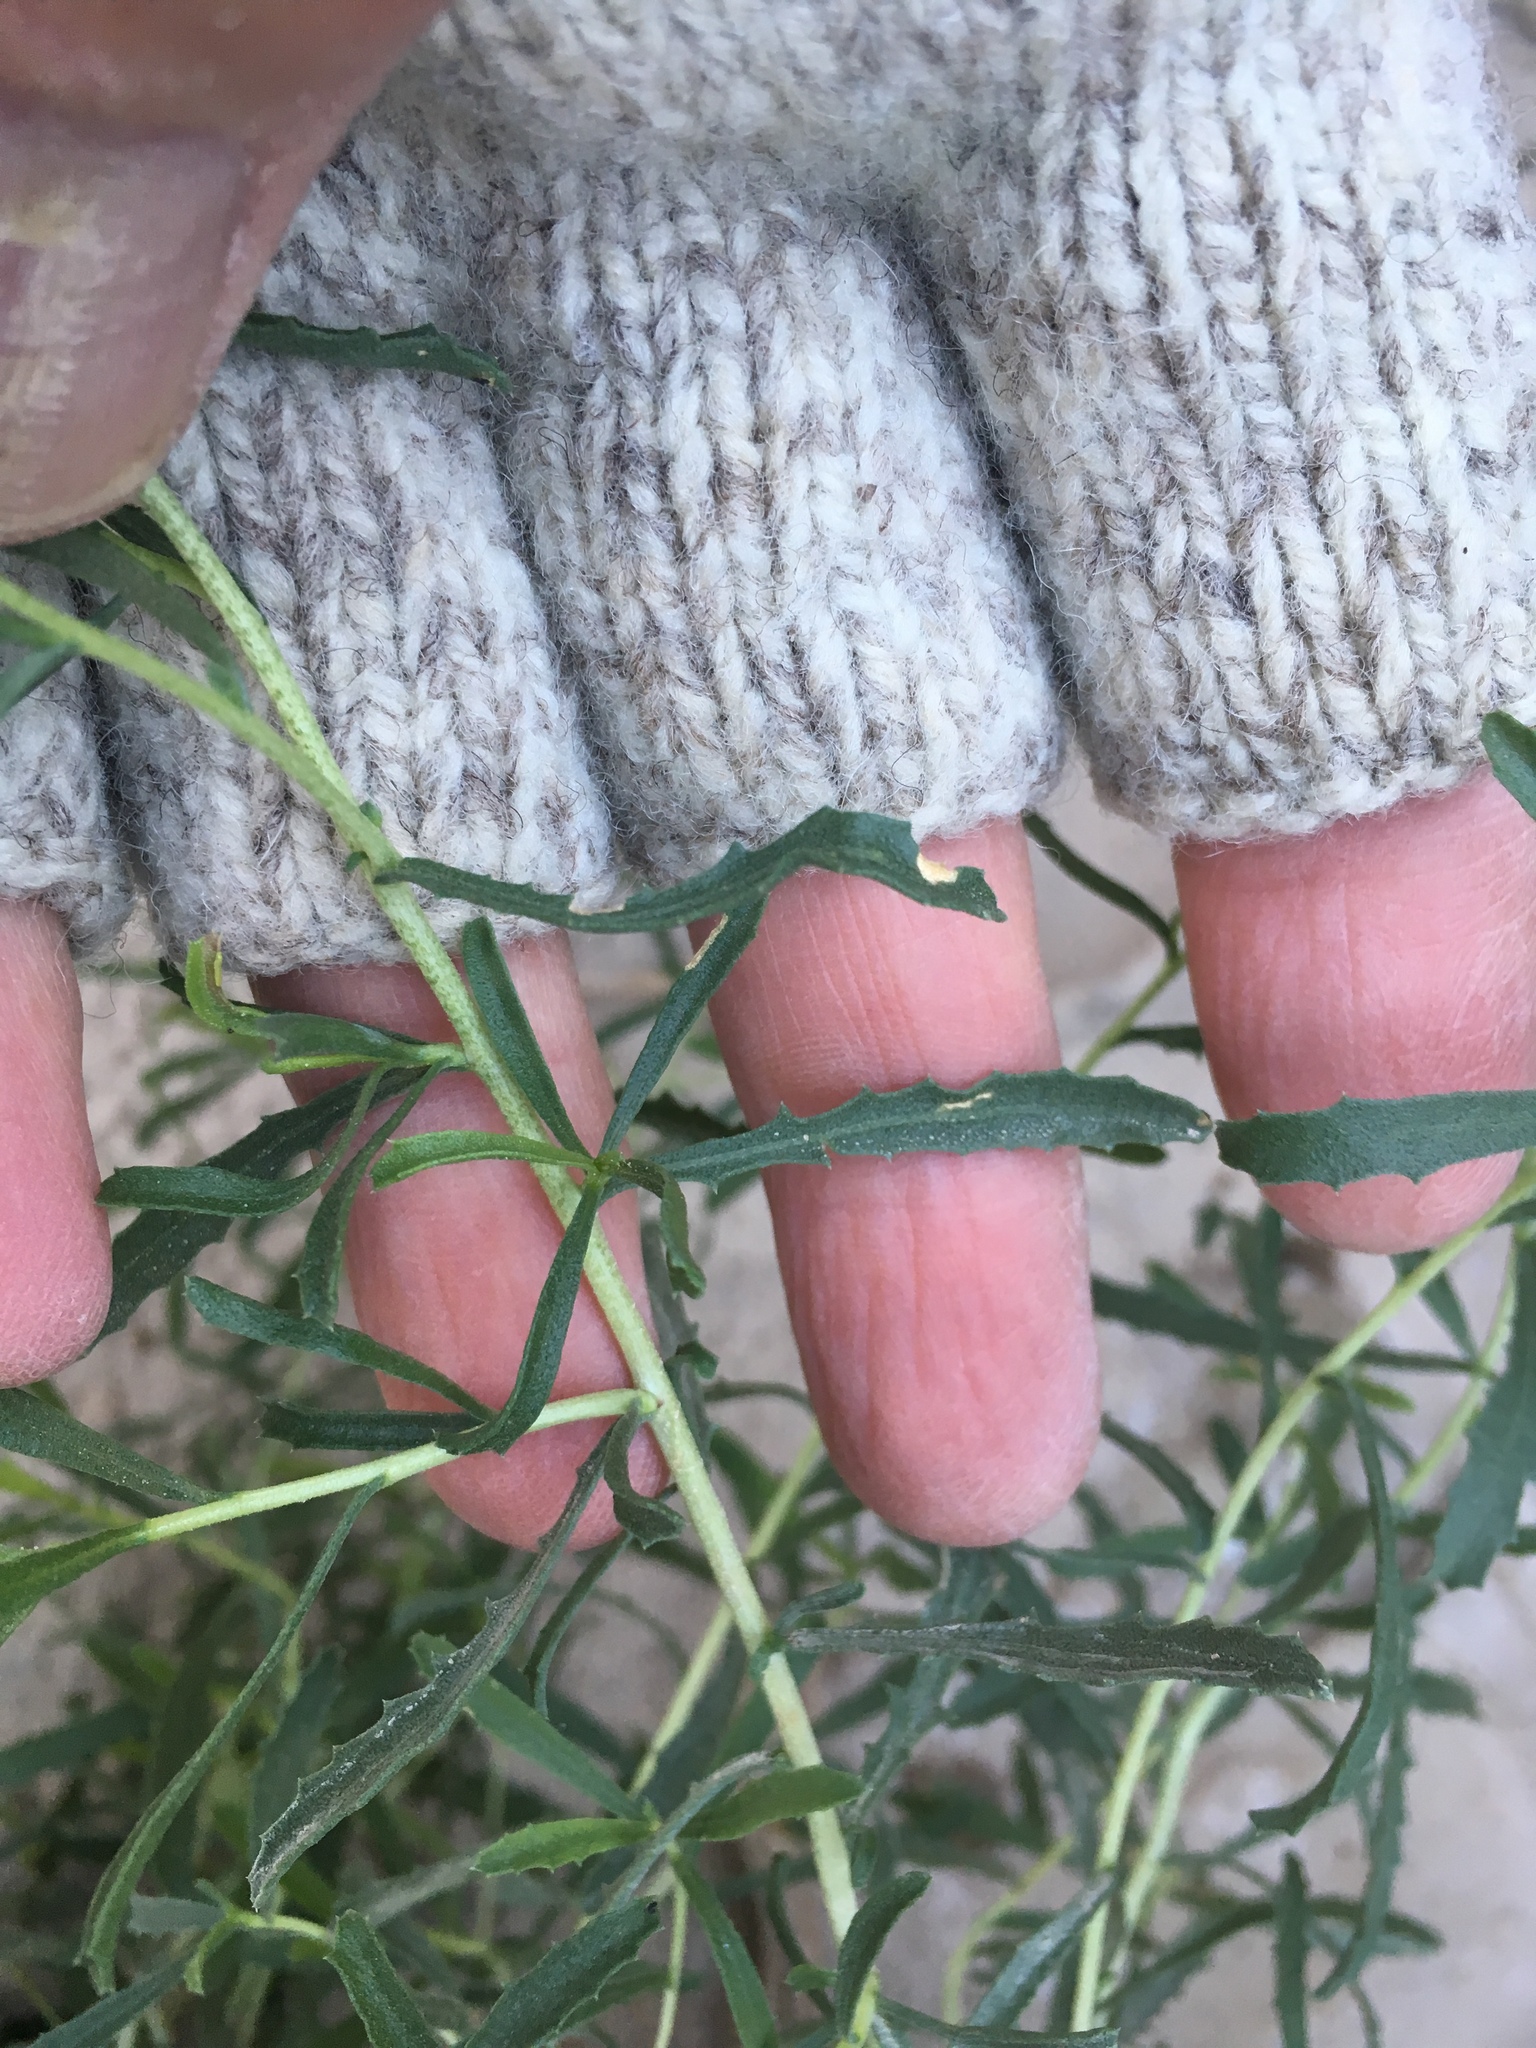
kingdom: Plantae
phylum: Tracheophyta
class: Magnoliopsida
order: Asterales
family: Asteraceae
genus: Isocoma
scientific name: Isocoma acradenia
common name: Alkali jimmyweed
